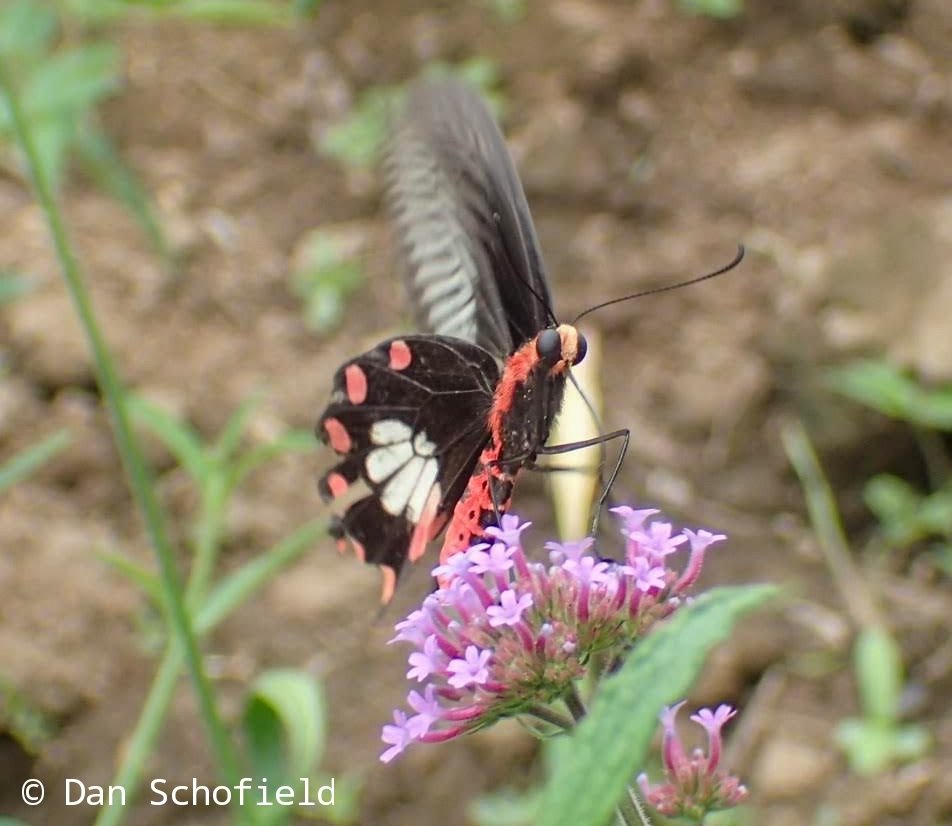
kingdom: Animalia
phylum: Arthropoda
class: Insecta
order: Lepidoptera
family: Papilionidae
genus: Pachliopta
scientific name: Pachliopta aristolochiae
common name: Common rose
